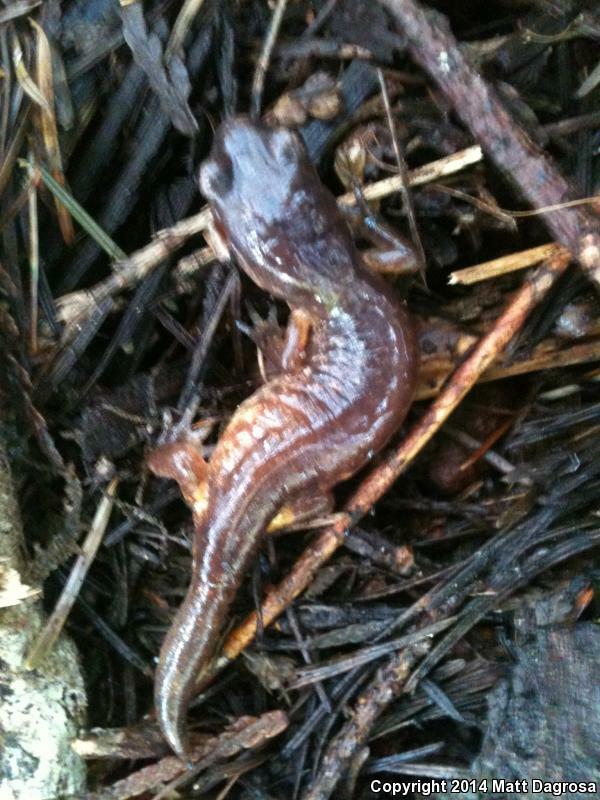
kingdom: Animalia
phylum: Chordata
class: Amphibia
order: Caudata
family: Plethodontidae
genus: Ensatina
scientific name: Ensatina eschscholtzii
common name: Ensatina
